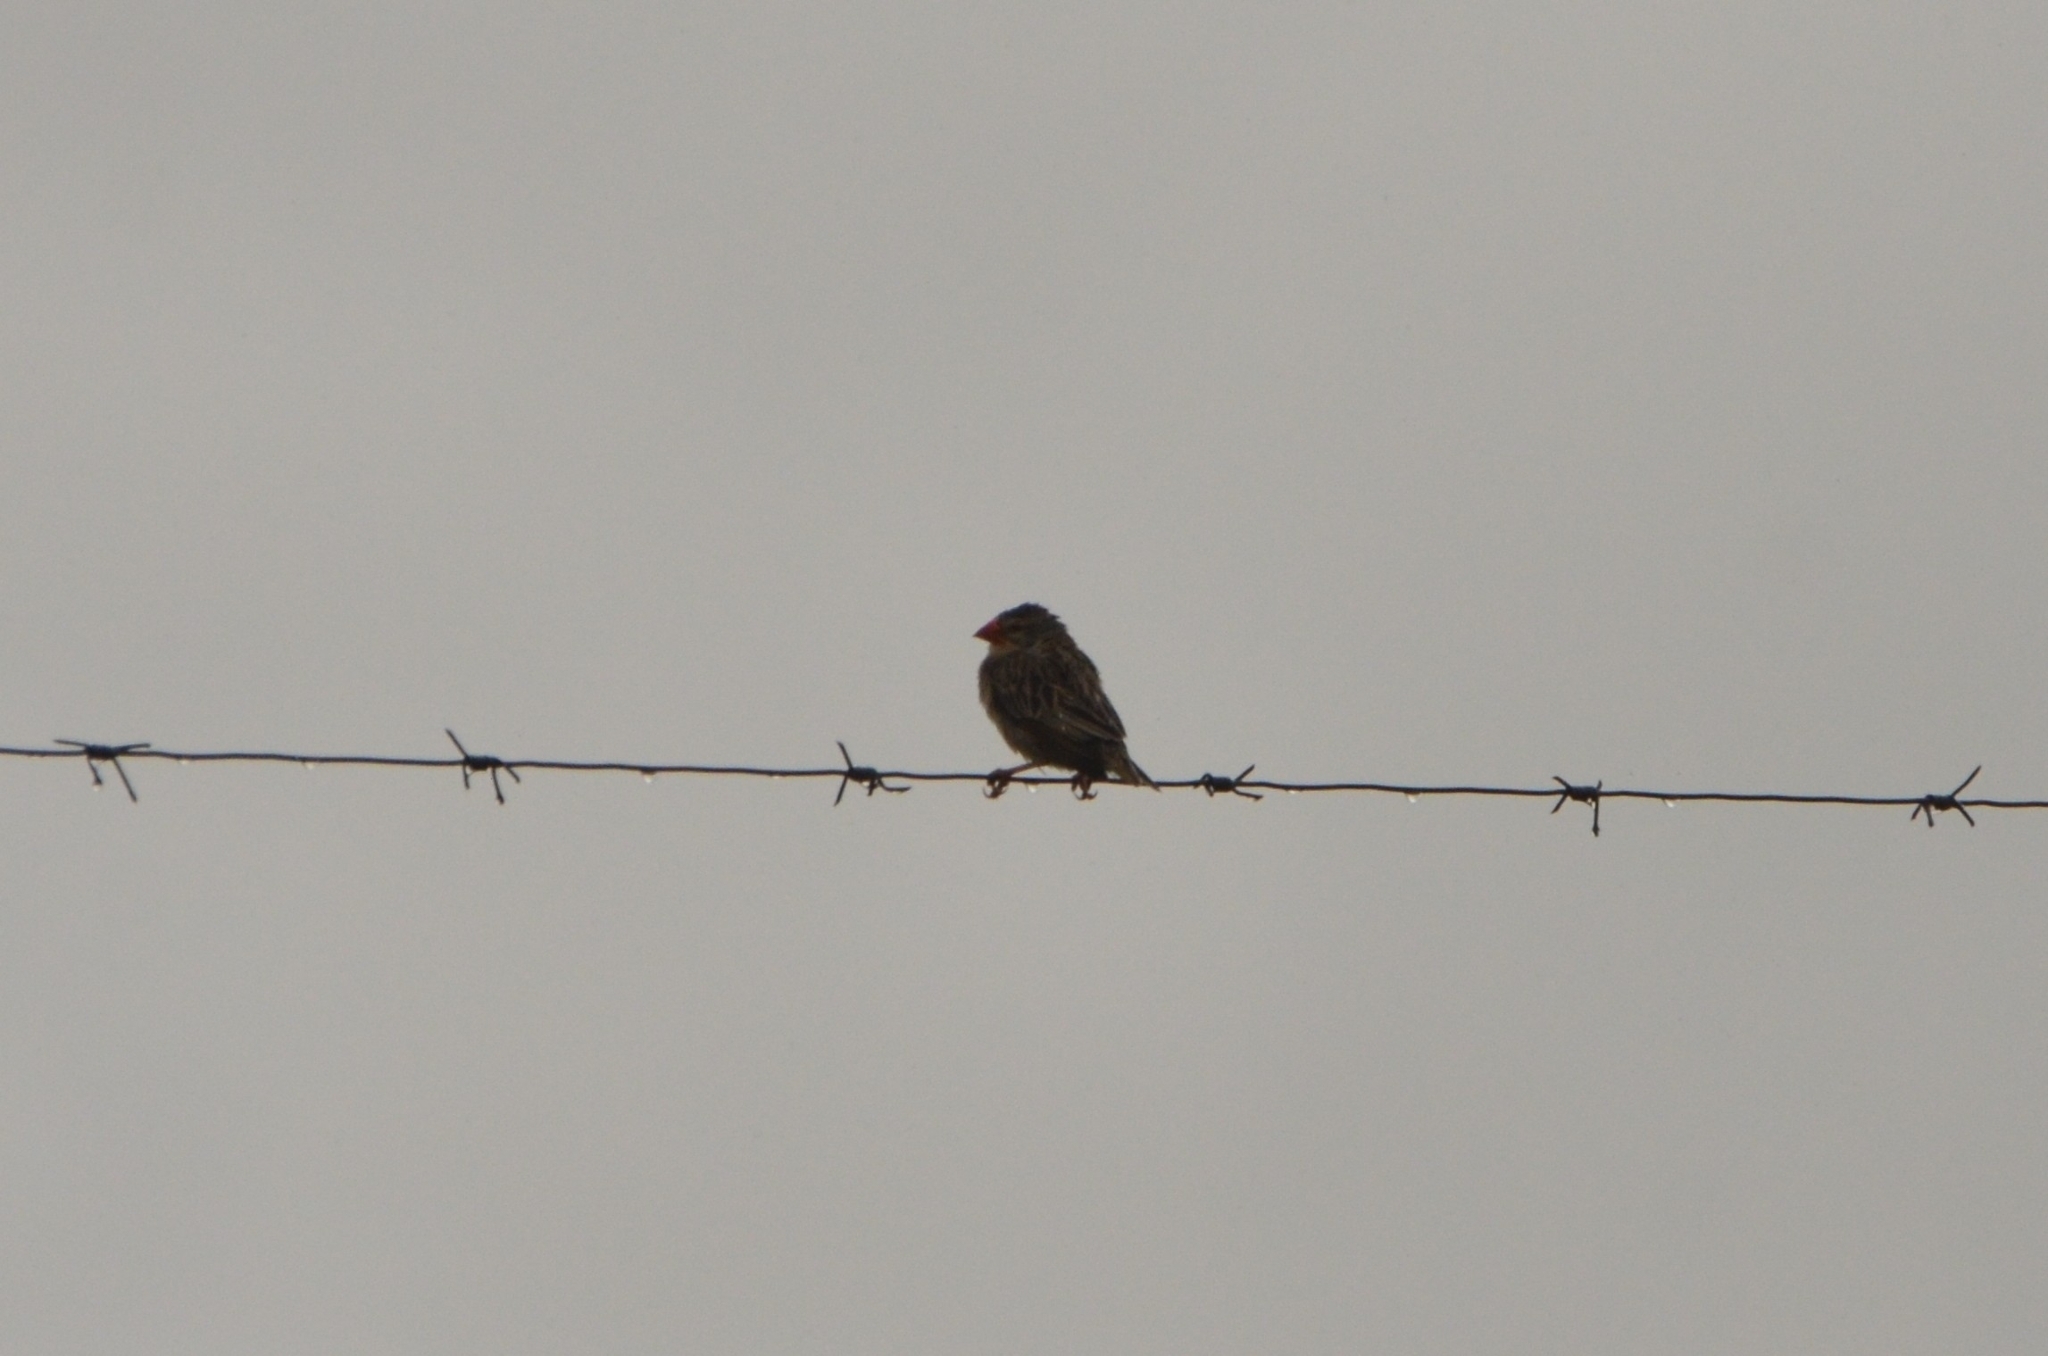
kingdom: Animalia
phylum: Chordata
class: Aves
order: Passeriformes
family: Ploceidae
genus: Quelea
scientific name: Quelea quelea
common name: Red-billed quelea
